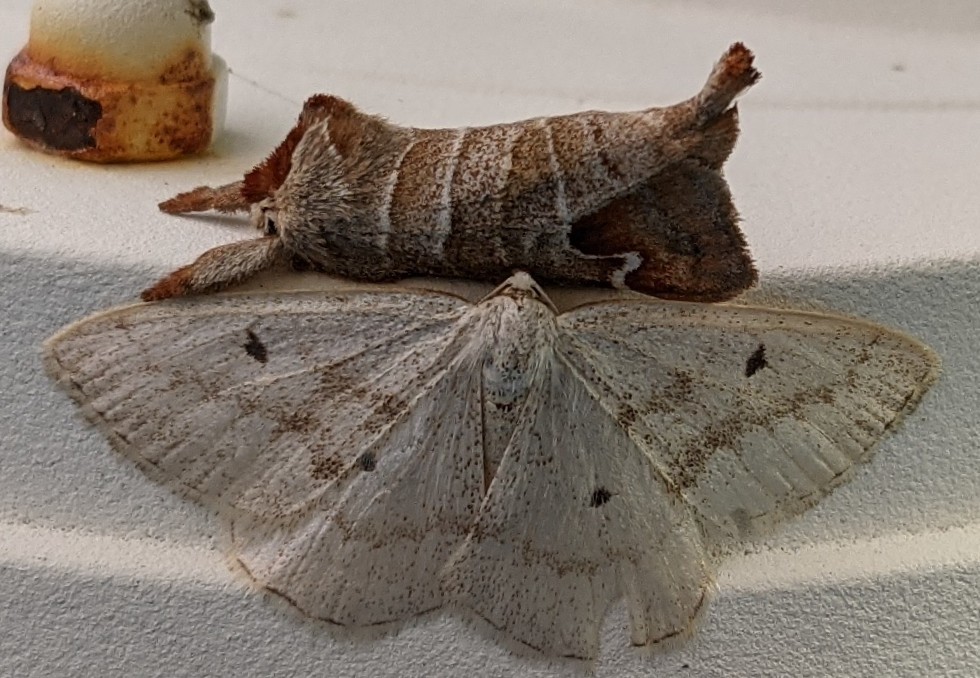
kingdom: Animalia
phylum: Arthropoda
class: Insecta
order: Lepidoptera
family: Notodontidae
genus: Clostera
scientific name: Clostera albosigma
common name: Sigmoid prominent
